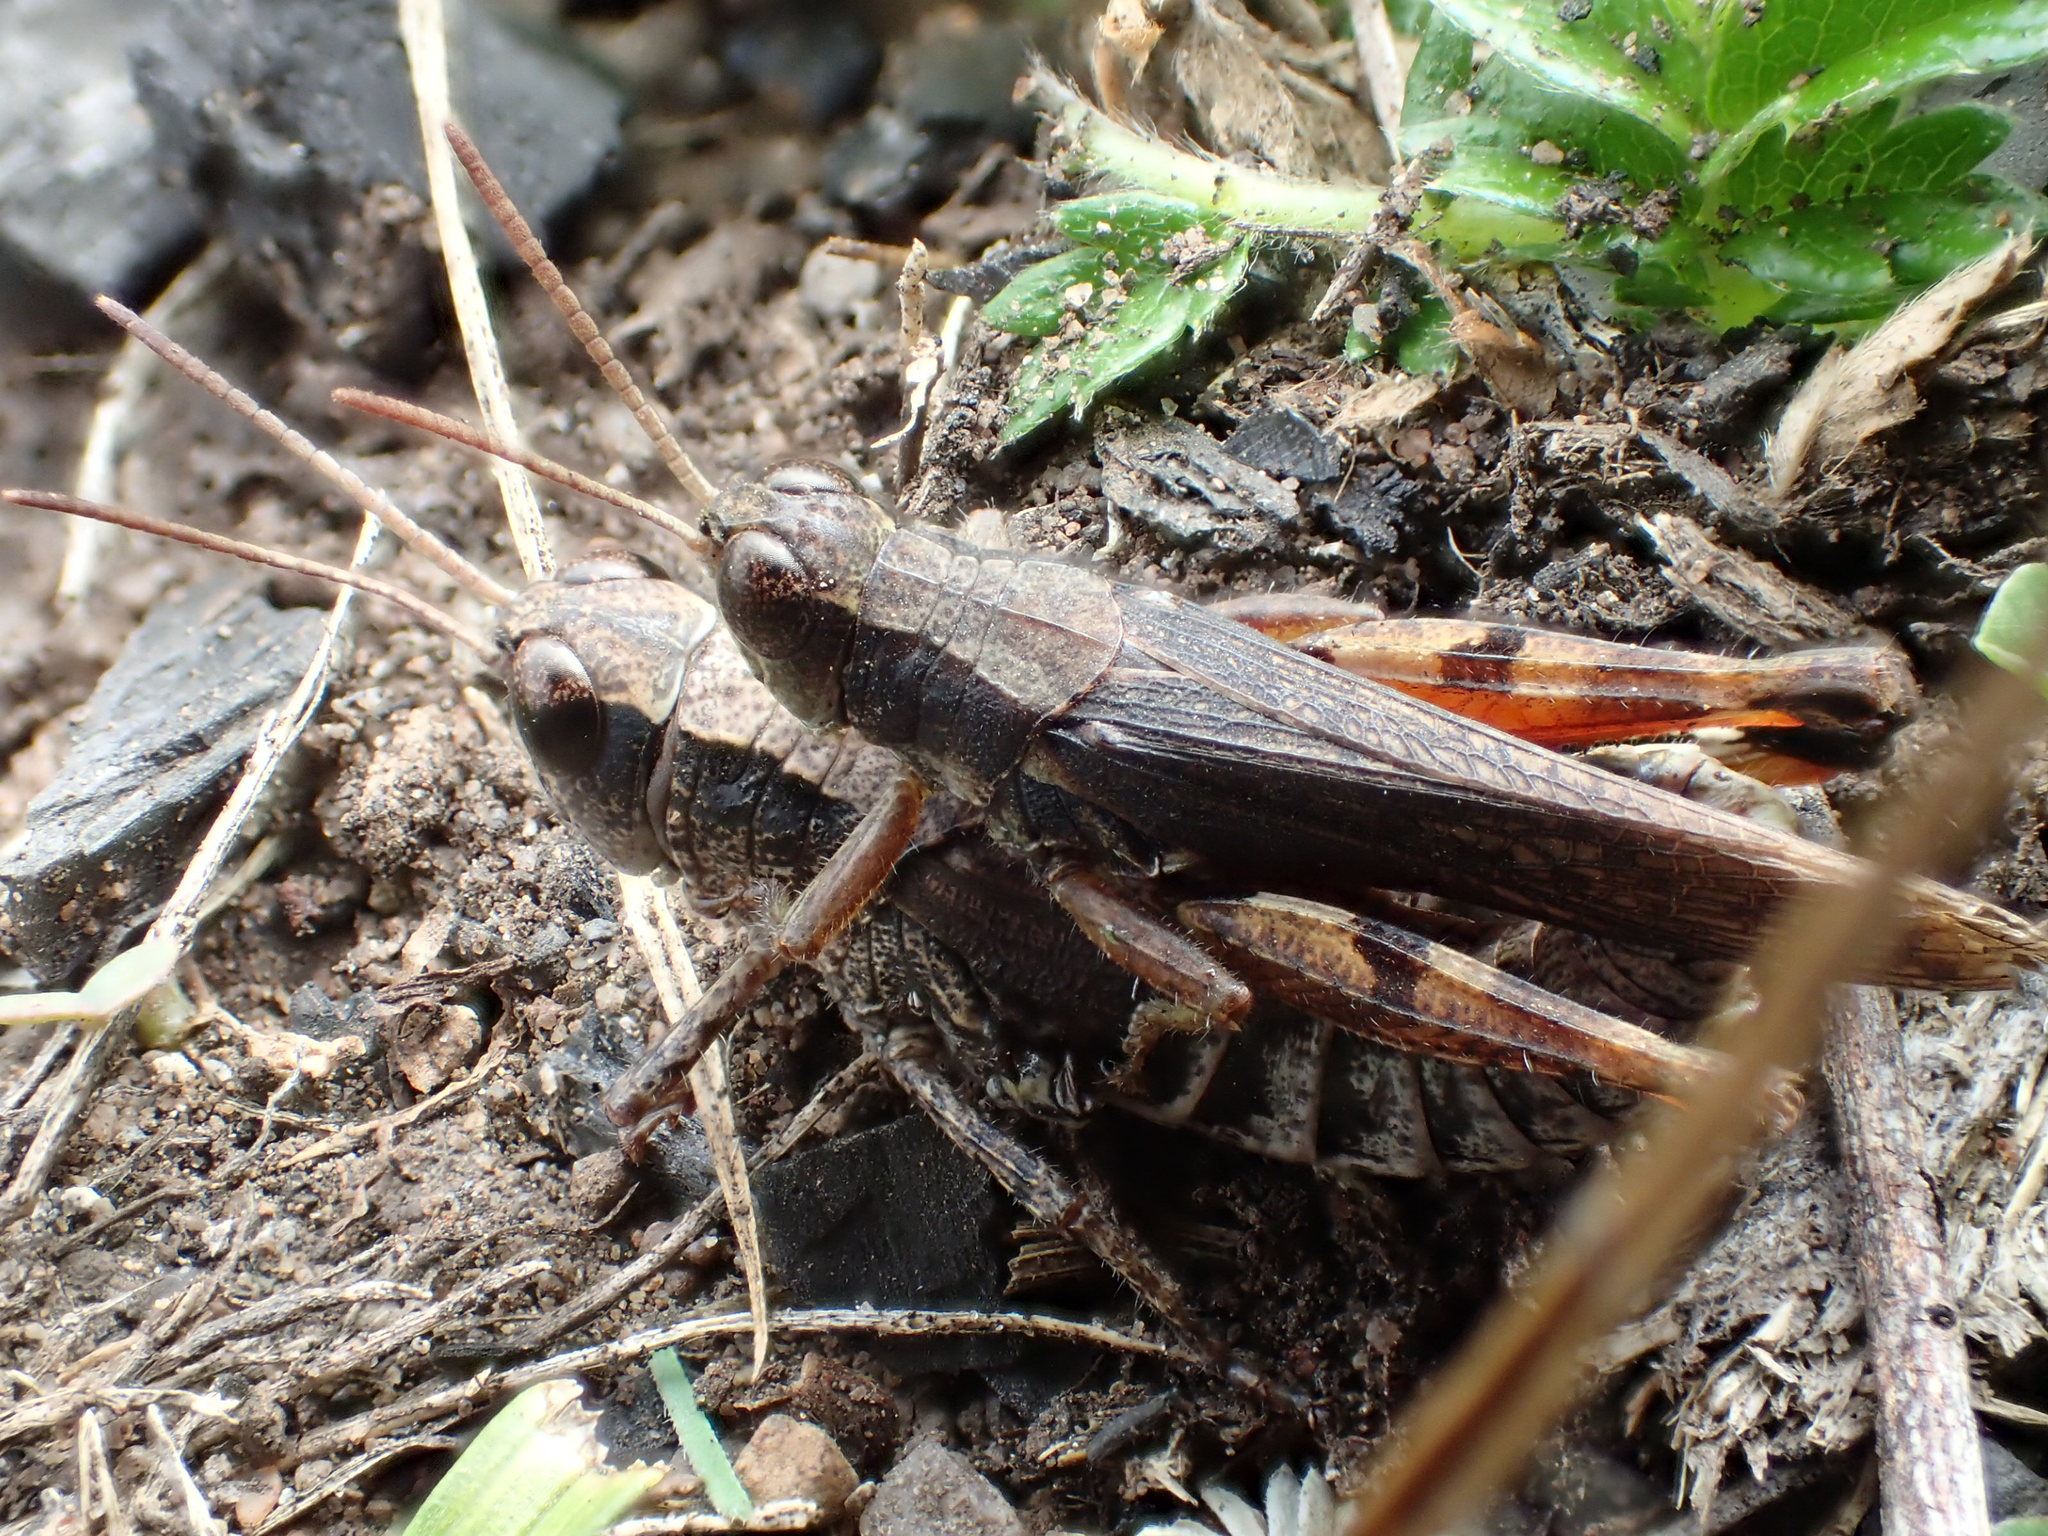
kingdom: Animalia
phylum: Arthropoda
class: Insecta
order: Orthoptera
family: Acrididae
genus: Phaulacridium
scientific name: Phaulacridium vittatum
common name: Wingless grasshopper
